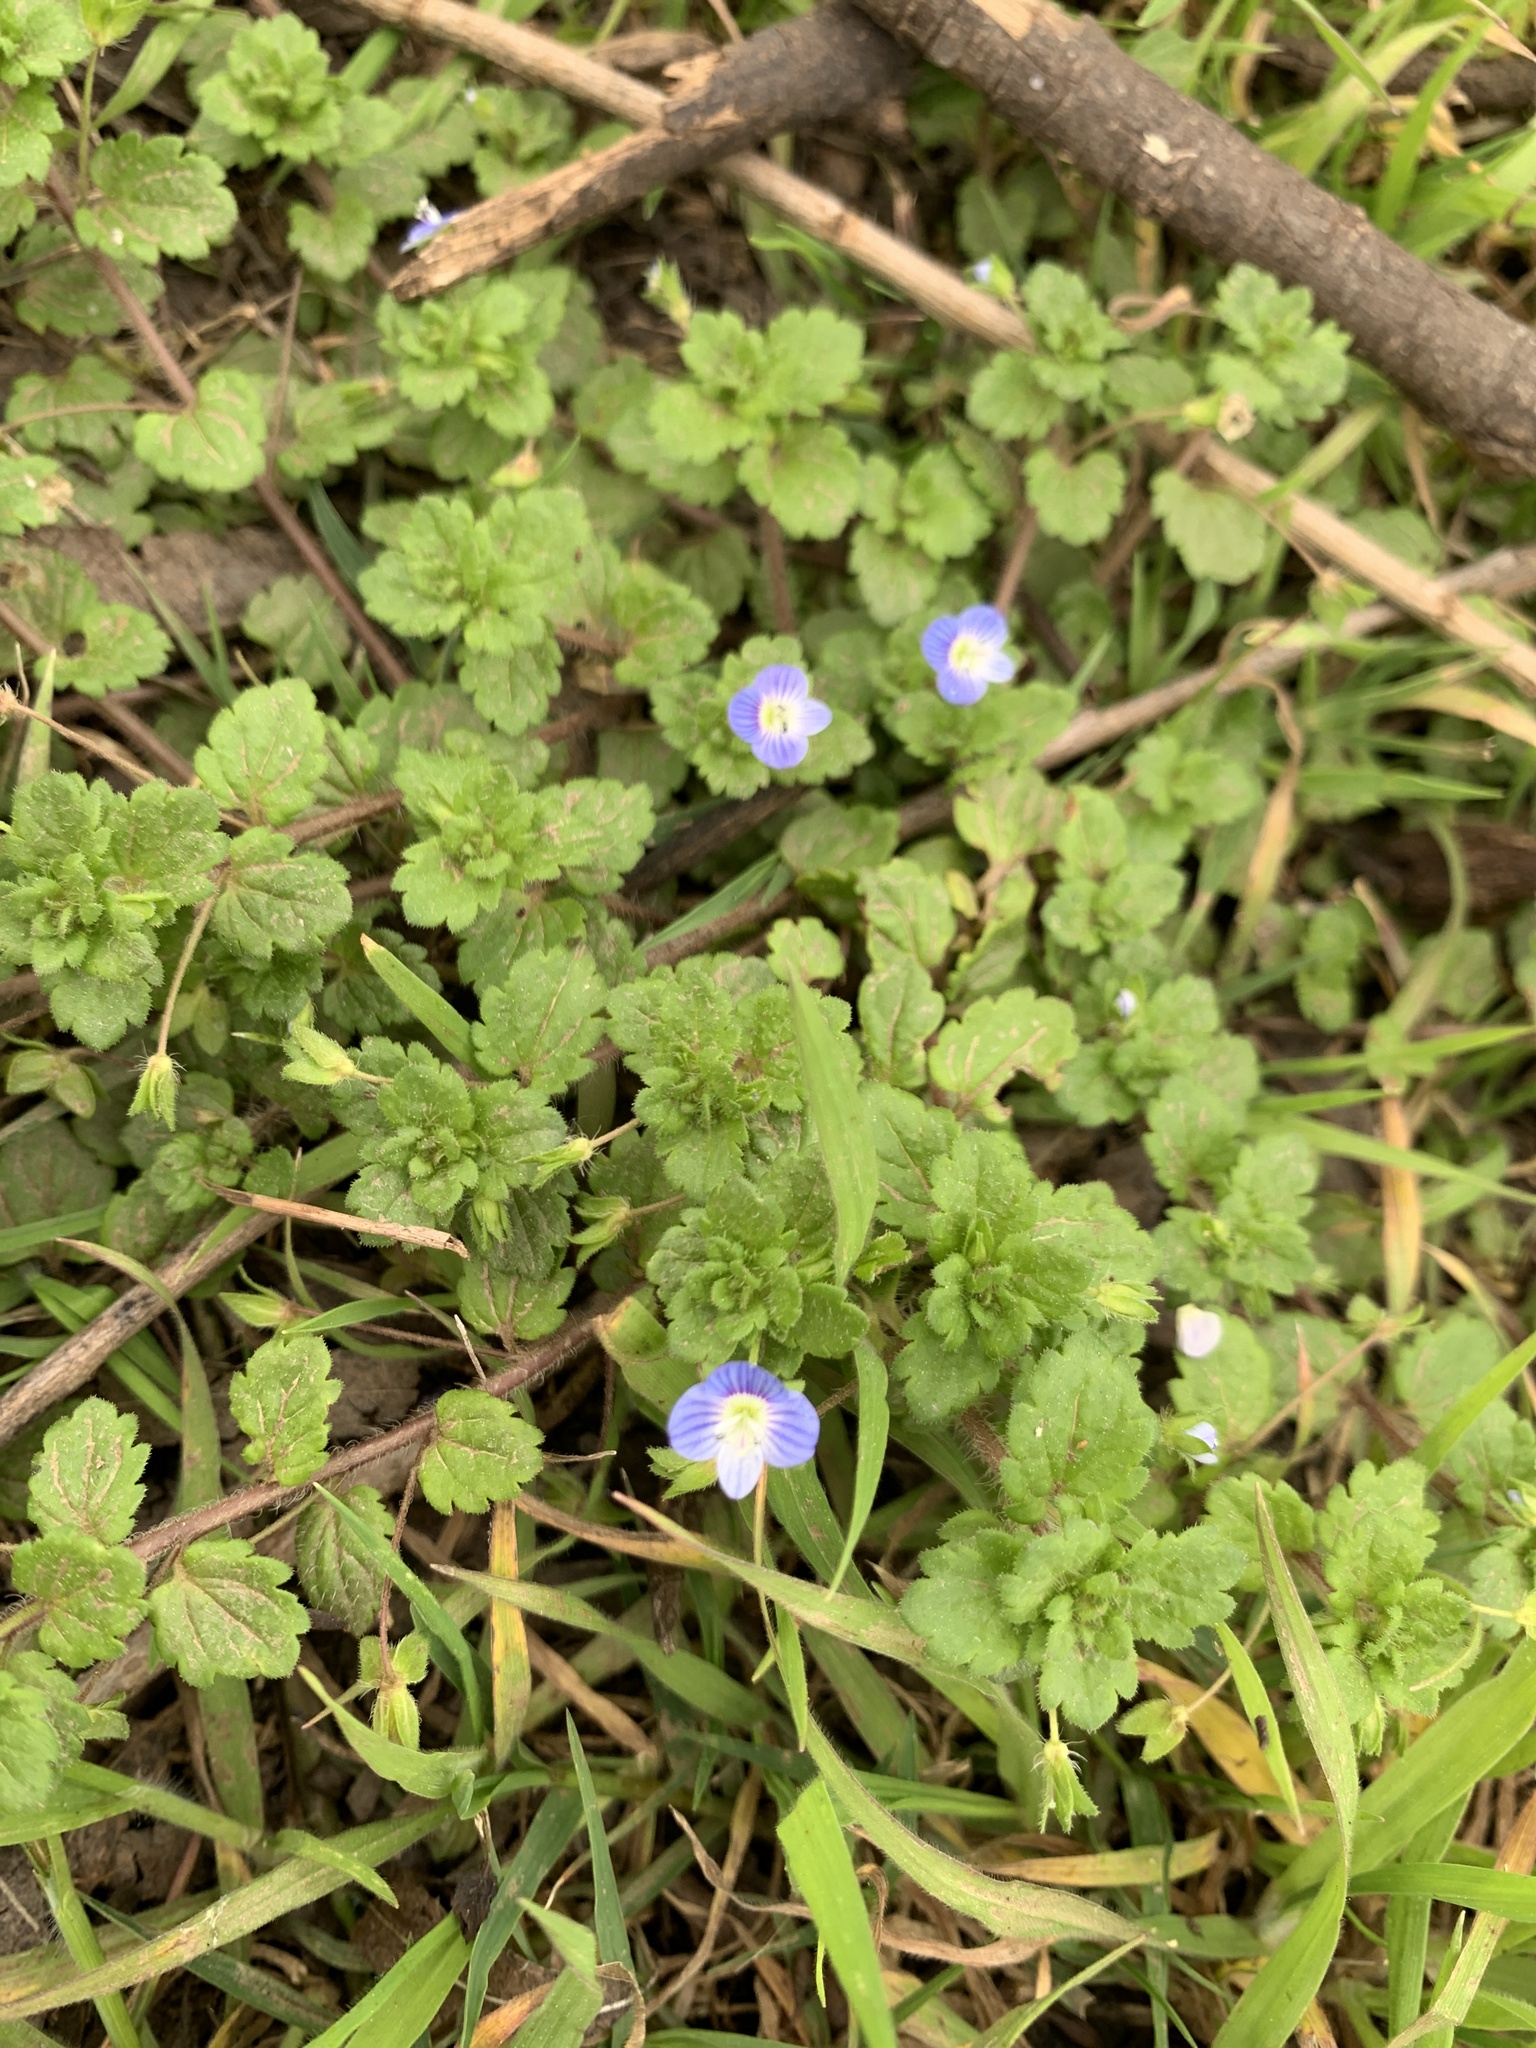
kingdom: Plantae
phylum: Tracheophyta
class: Magnoliopsida
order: Lamiales
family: Plantaginaceae
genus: Veronica
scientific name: Veronica persica
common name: Common field-speedwell
